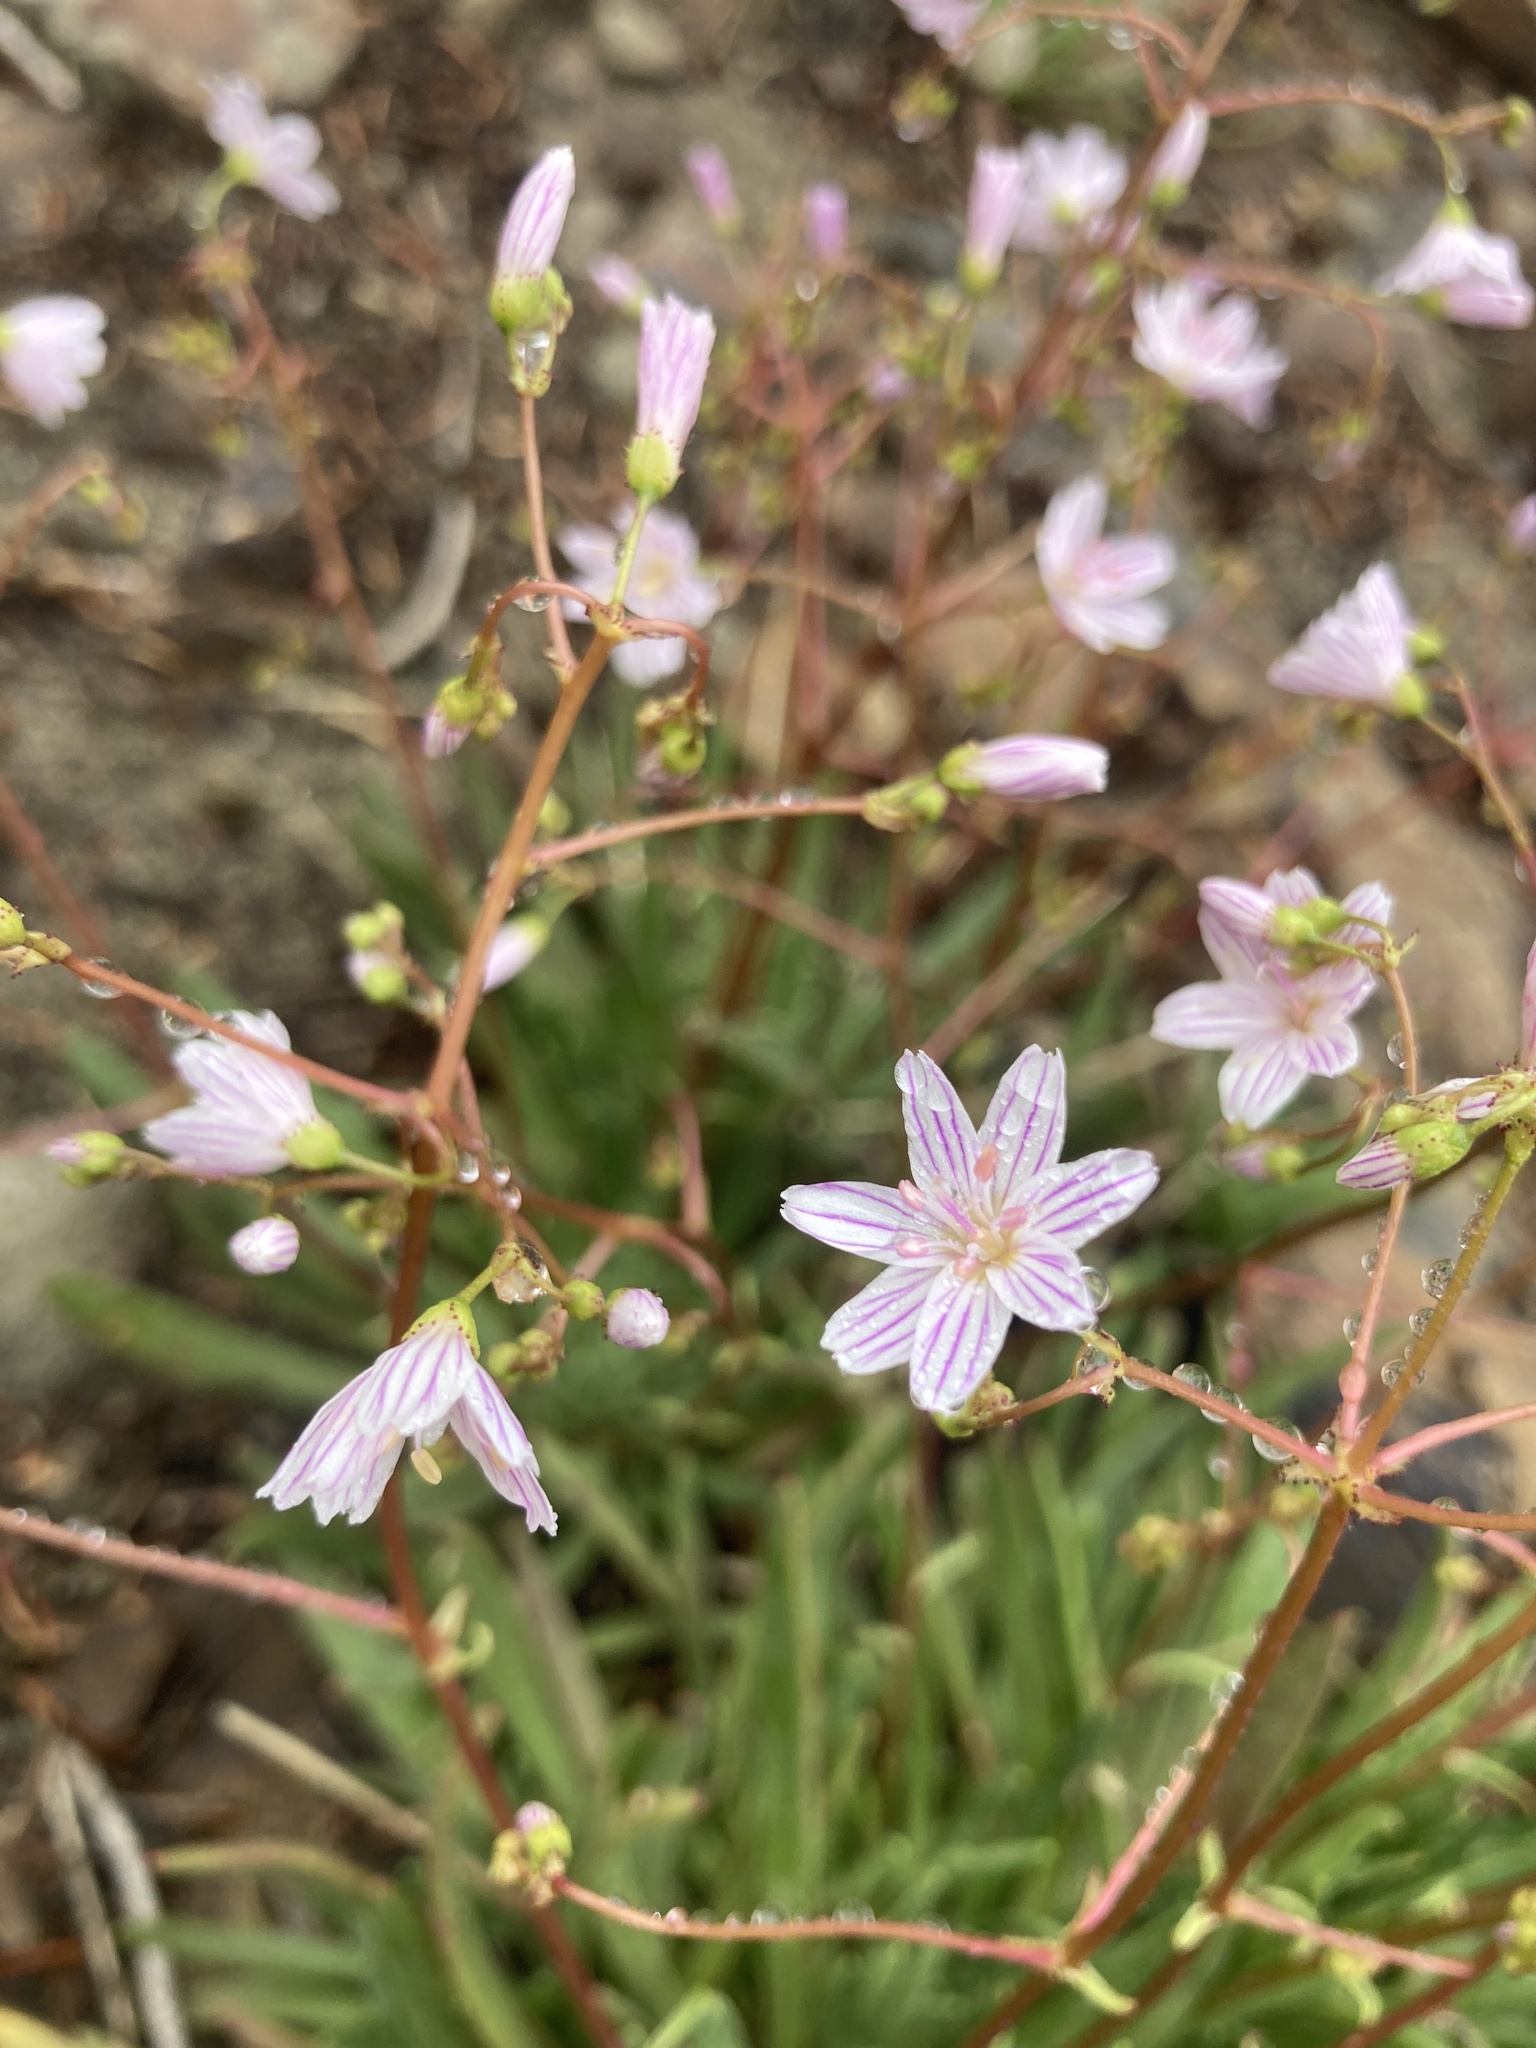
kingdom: Plantae
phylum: Tracheophyta
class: Magnoliopsida
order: Caryophyllales
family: Montiaceae
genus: Lewisia
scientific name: Lewisia columbiana
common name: Columbia lewisia
